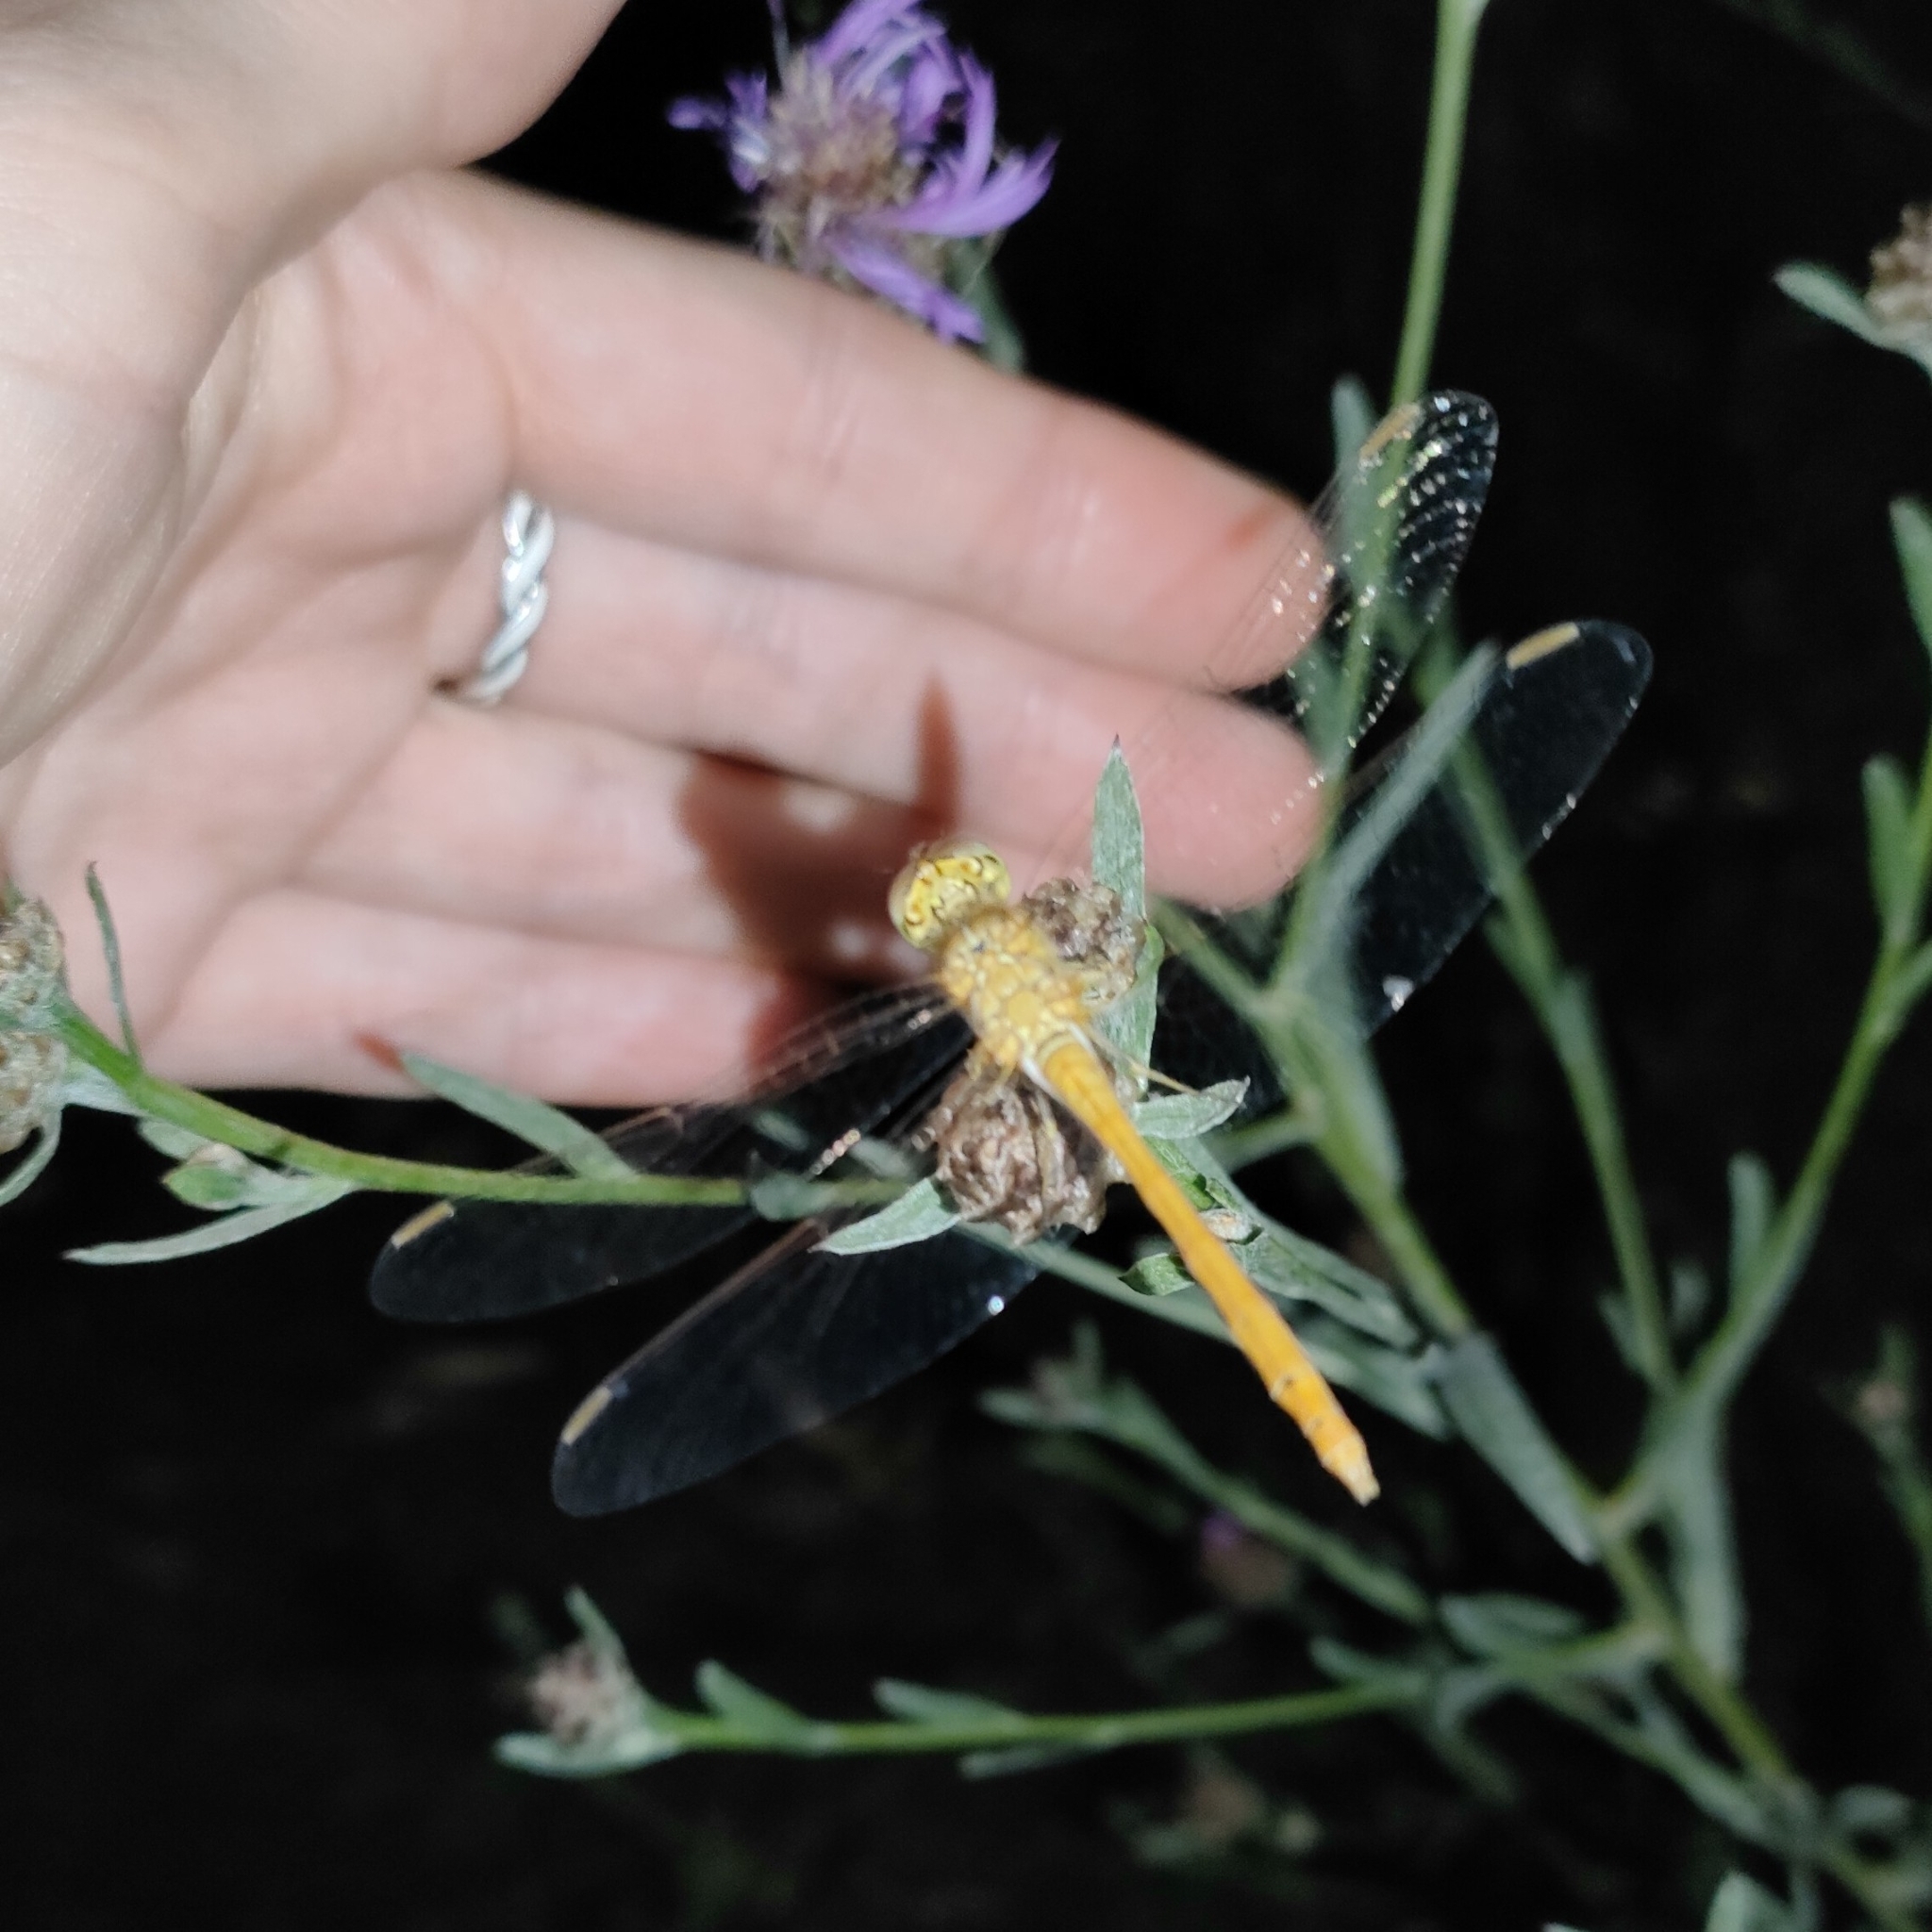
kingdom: Animalia
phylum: Arthropoda
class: Insecta
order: Odonata
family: Libellulidae
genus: Sympetrum
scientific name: Sympetrum meridionale
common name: Southern darter
